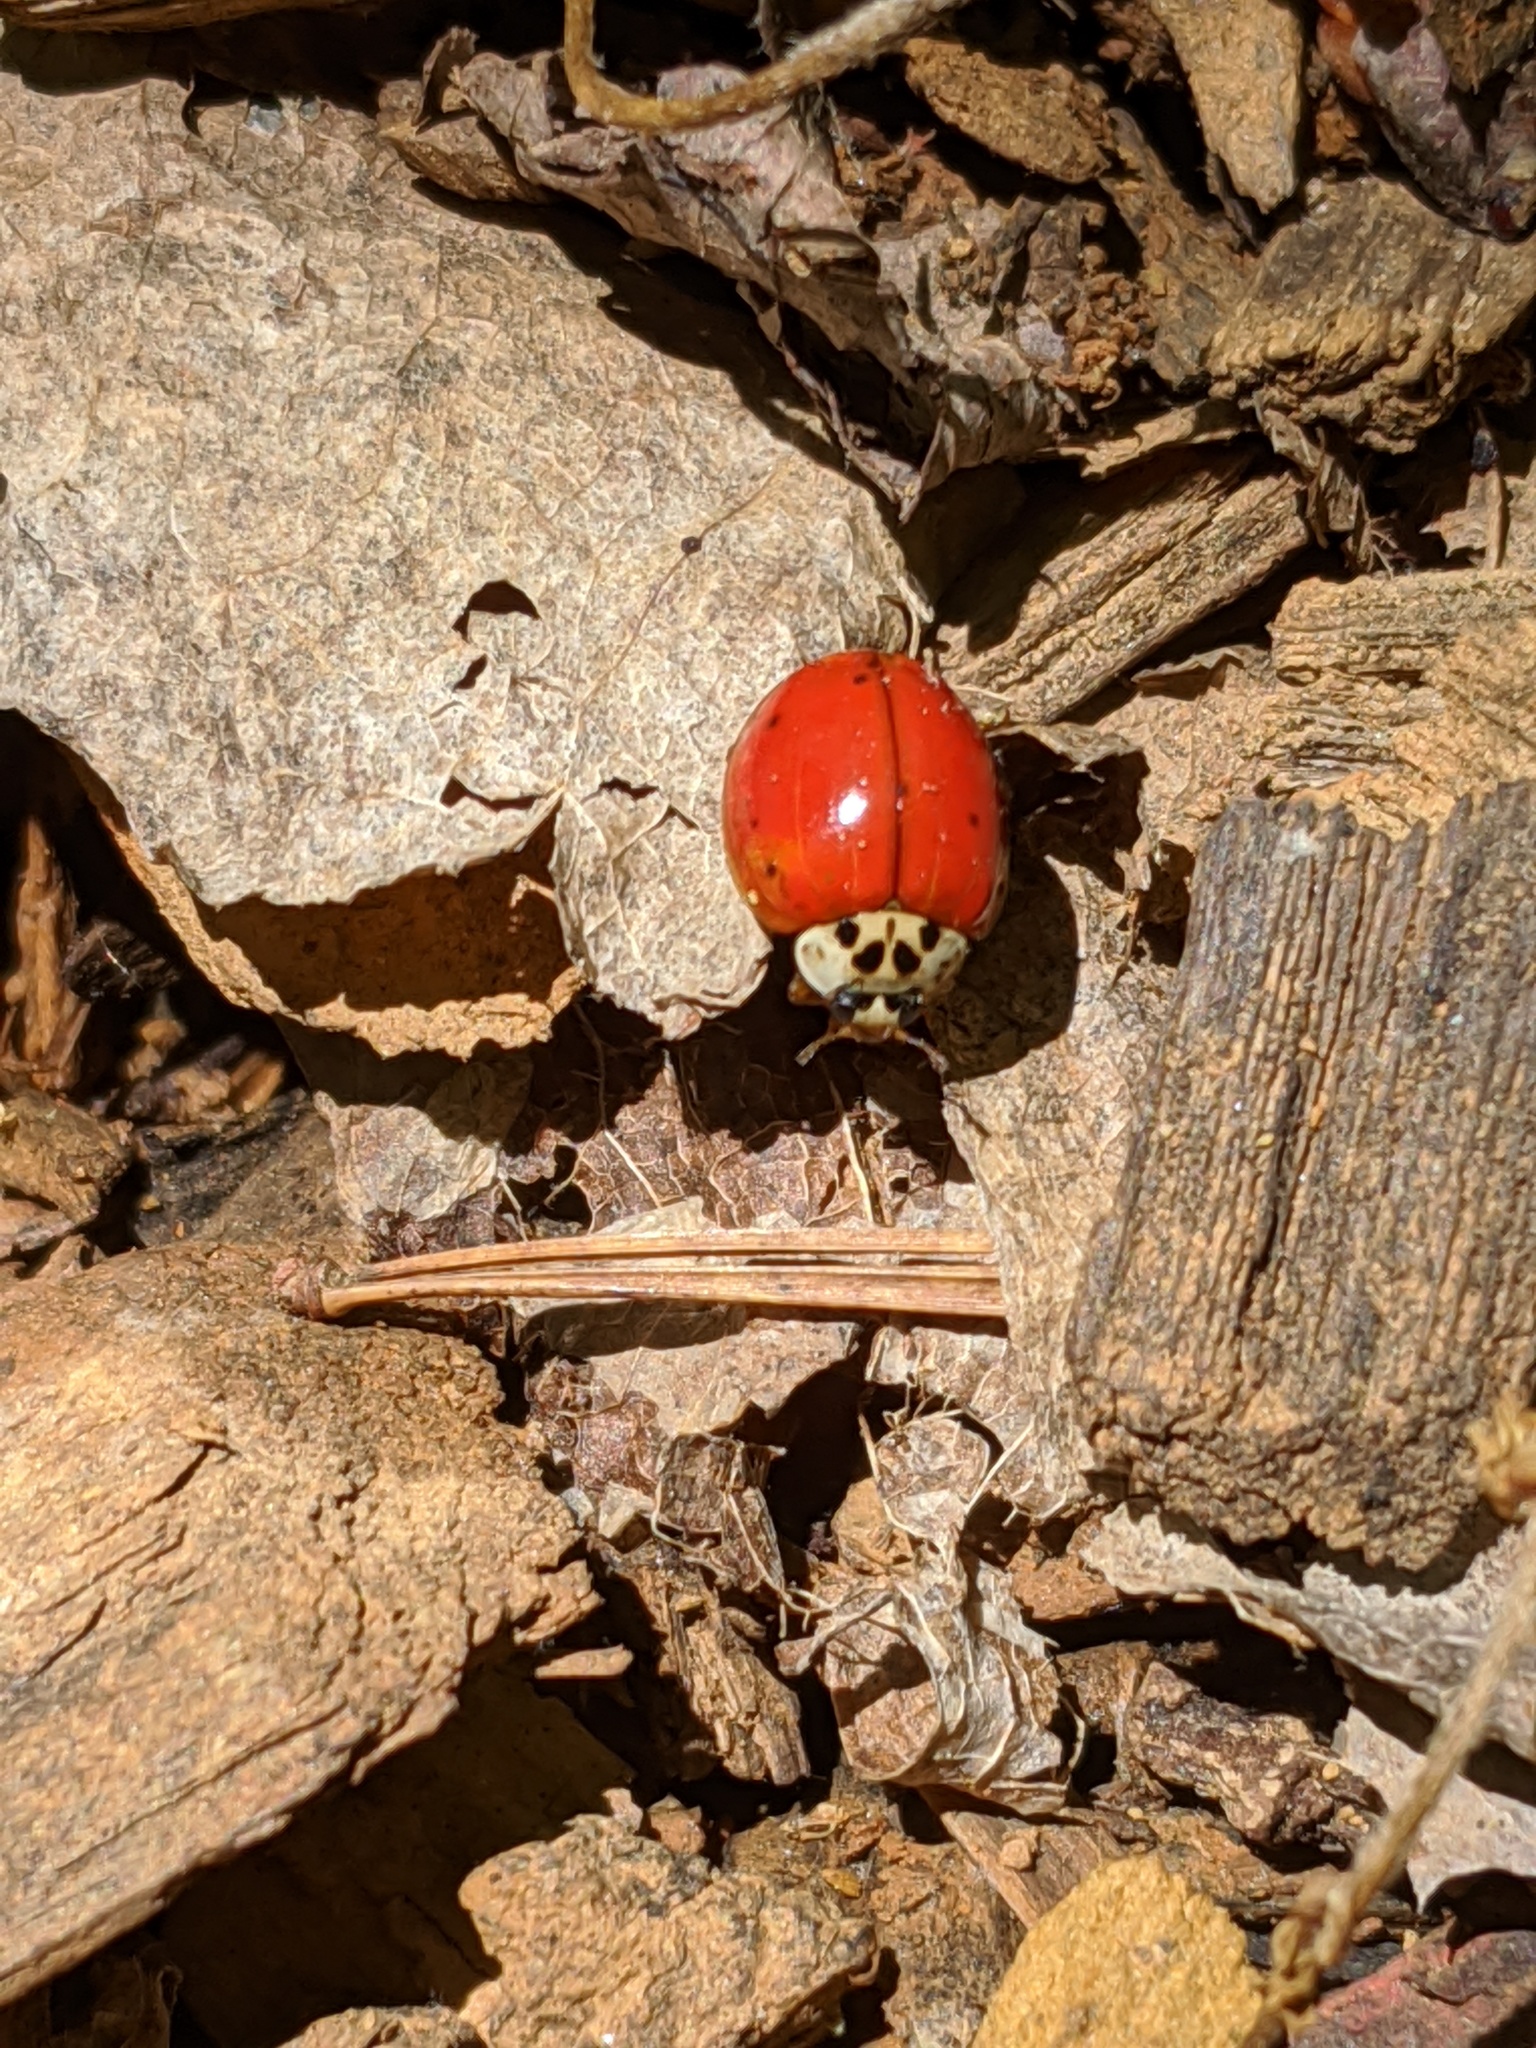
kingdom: Animalia
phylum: Arthropoda
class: Insecta
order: Coleoptera
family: Coccinellidae
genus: Harmonia
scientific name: Harmonia axyridis
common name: Harlequin ladybird
